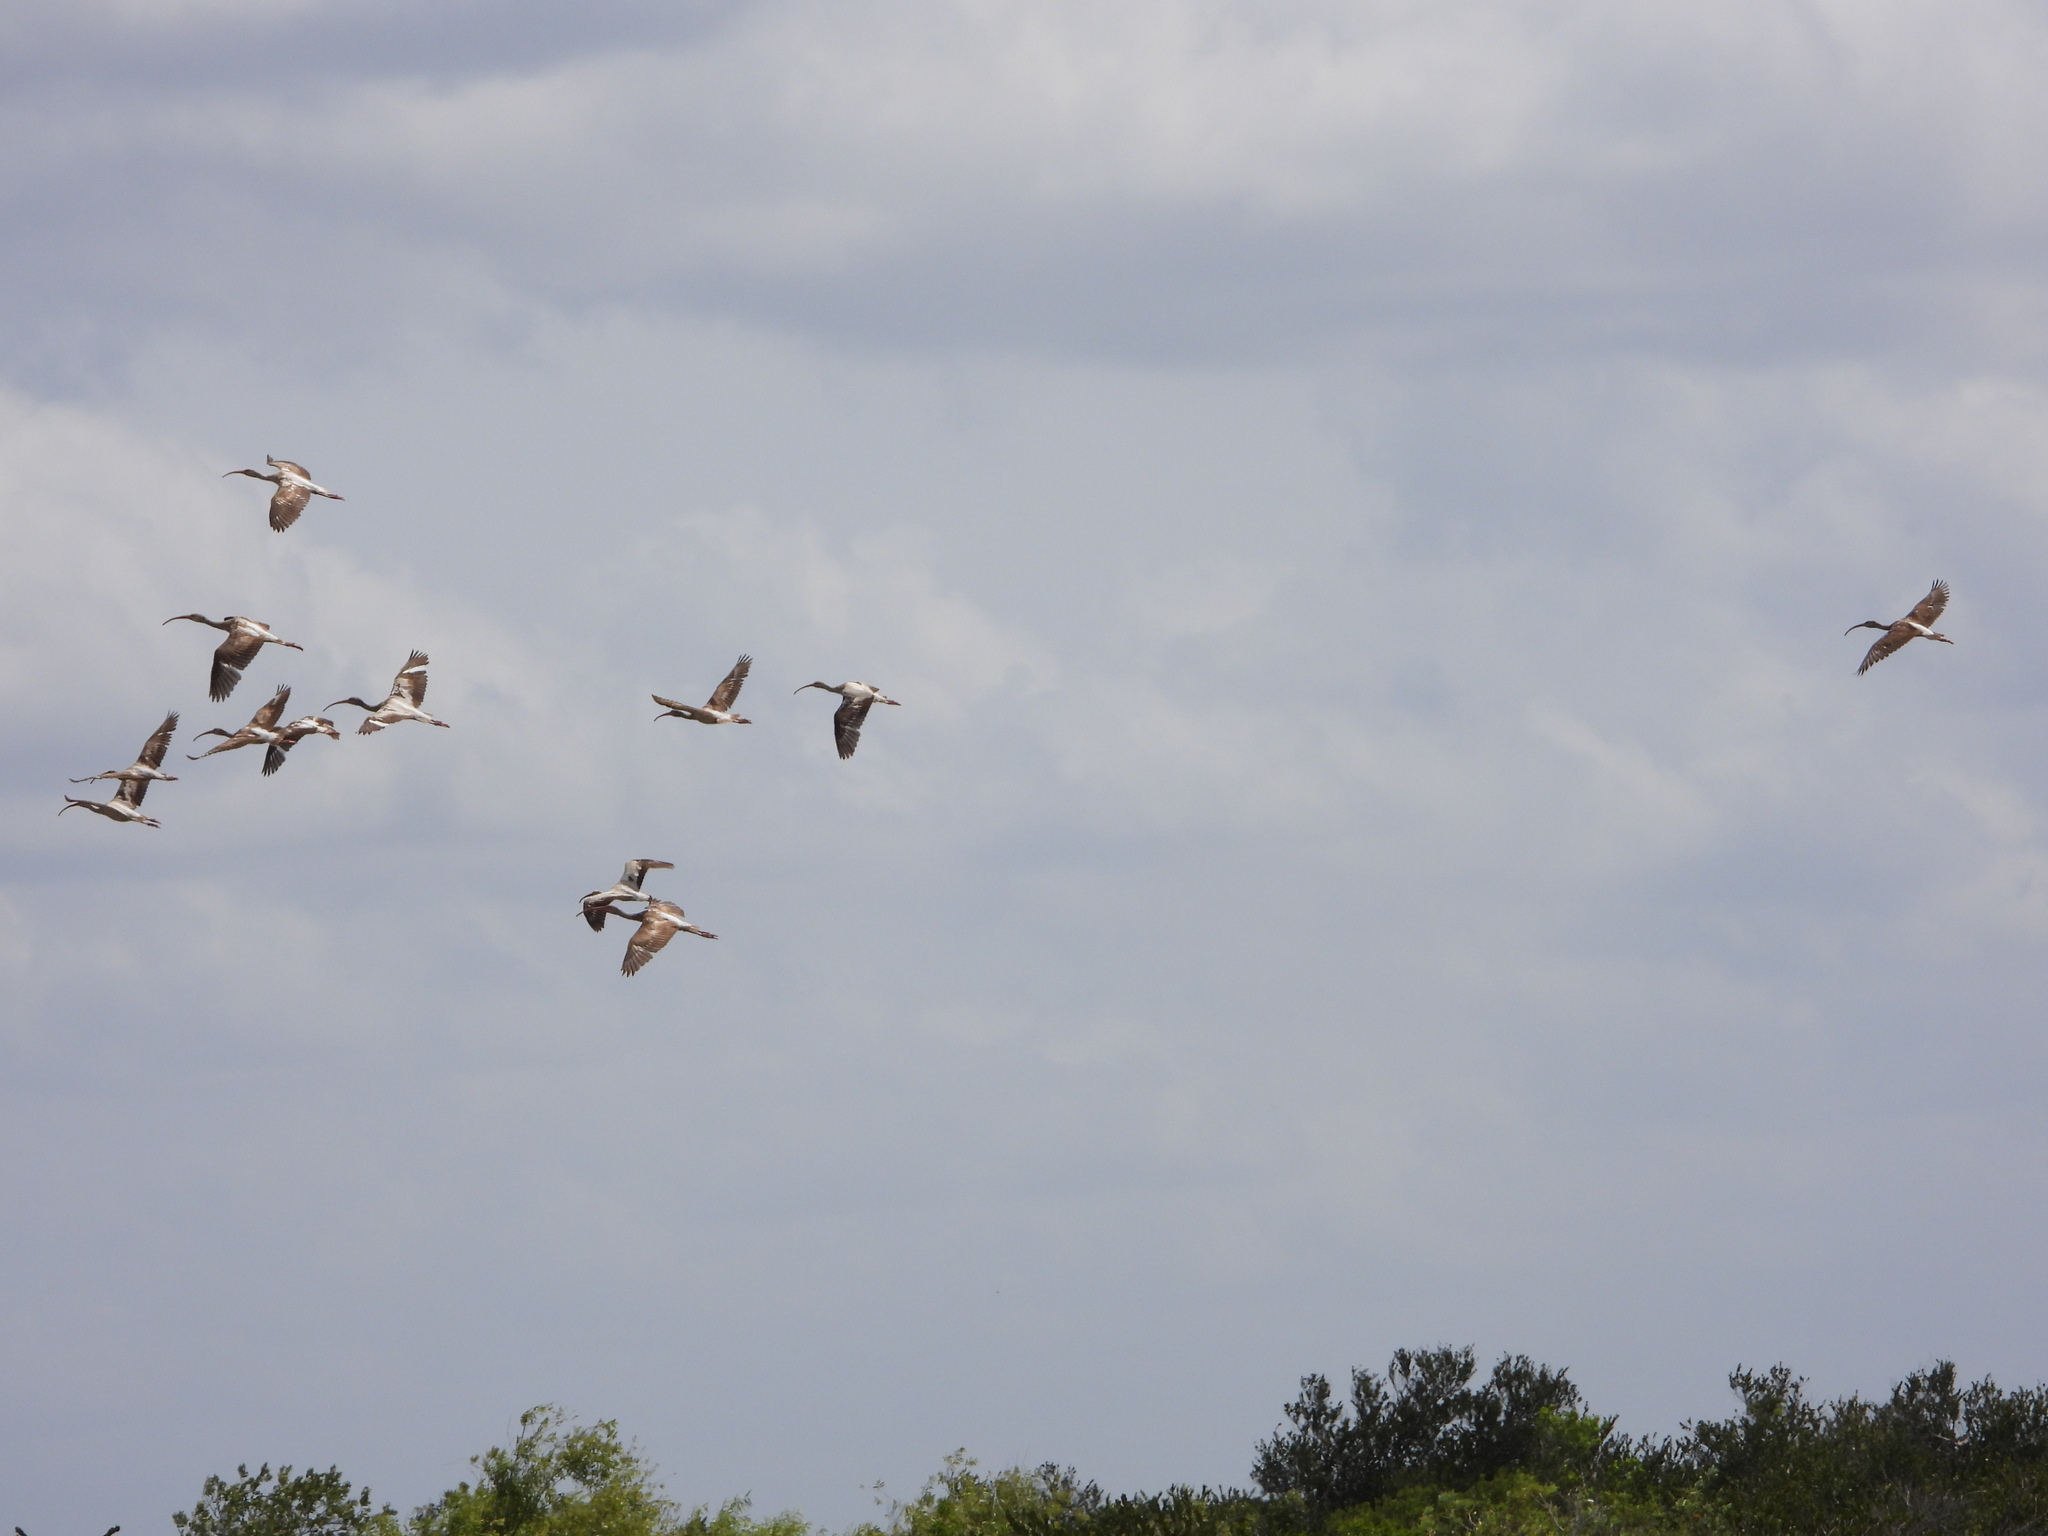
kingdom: Animalia
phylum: Chordata
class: Aves
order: Pelecaniformes
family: Threskiornithidae
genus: Eudocimus
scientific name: Eudocimus albus
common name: White ibis
